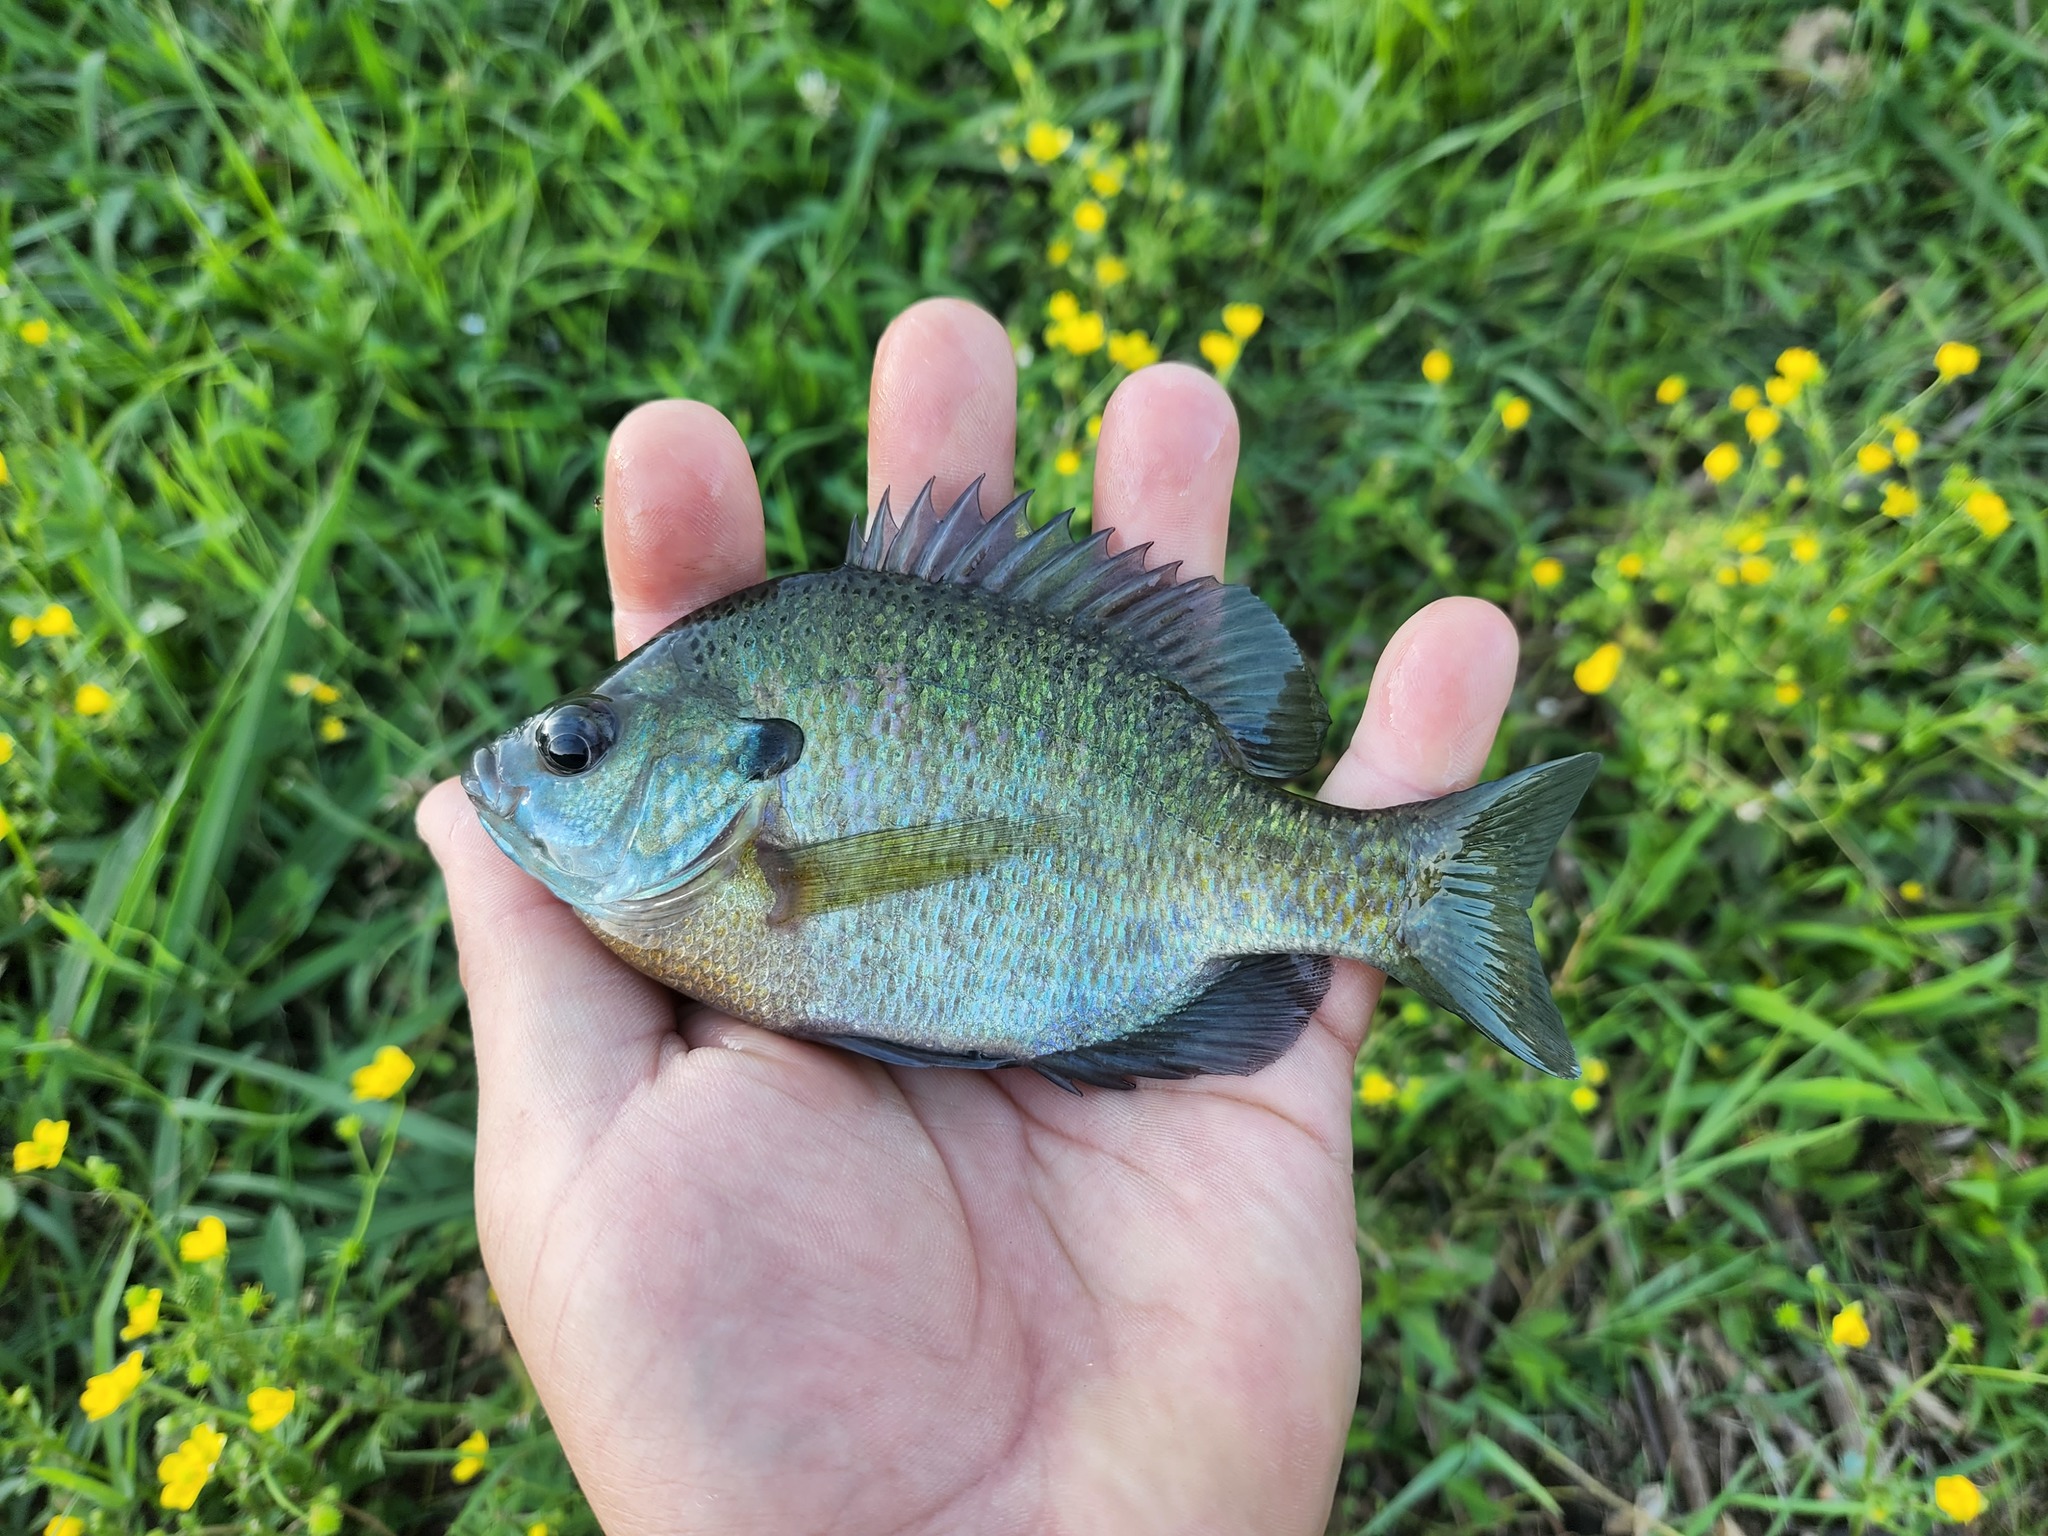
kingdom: Animalia
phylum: Chordata
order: Perciformes
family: Centrarchidae
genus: Lepomis
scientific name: Lepomis macrochirus
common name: Bluegill
